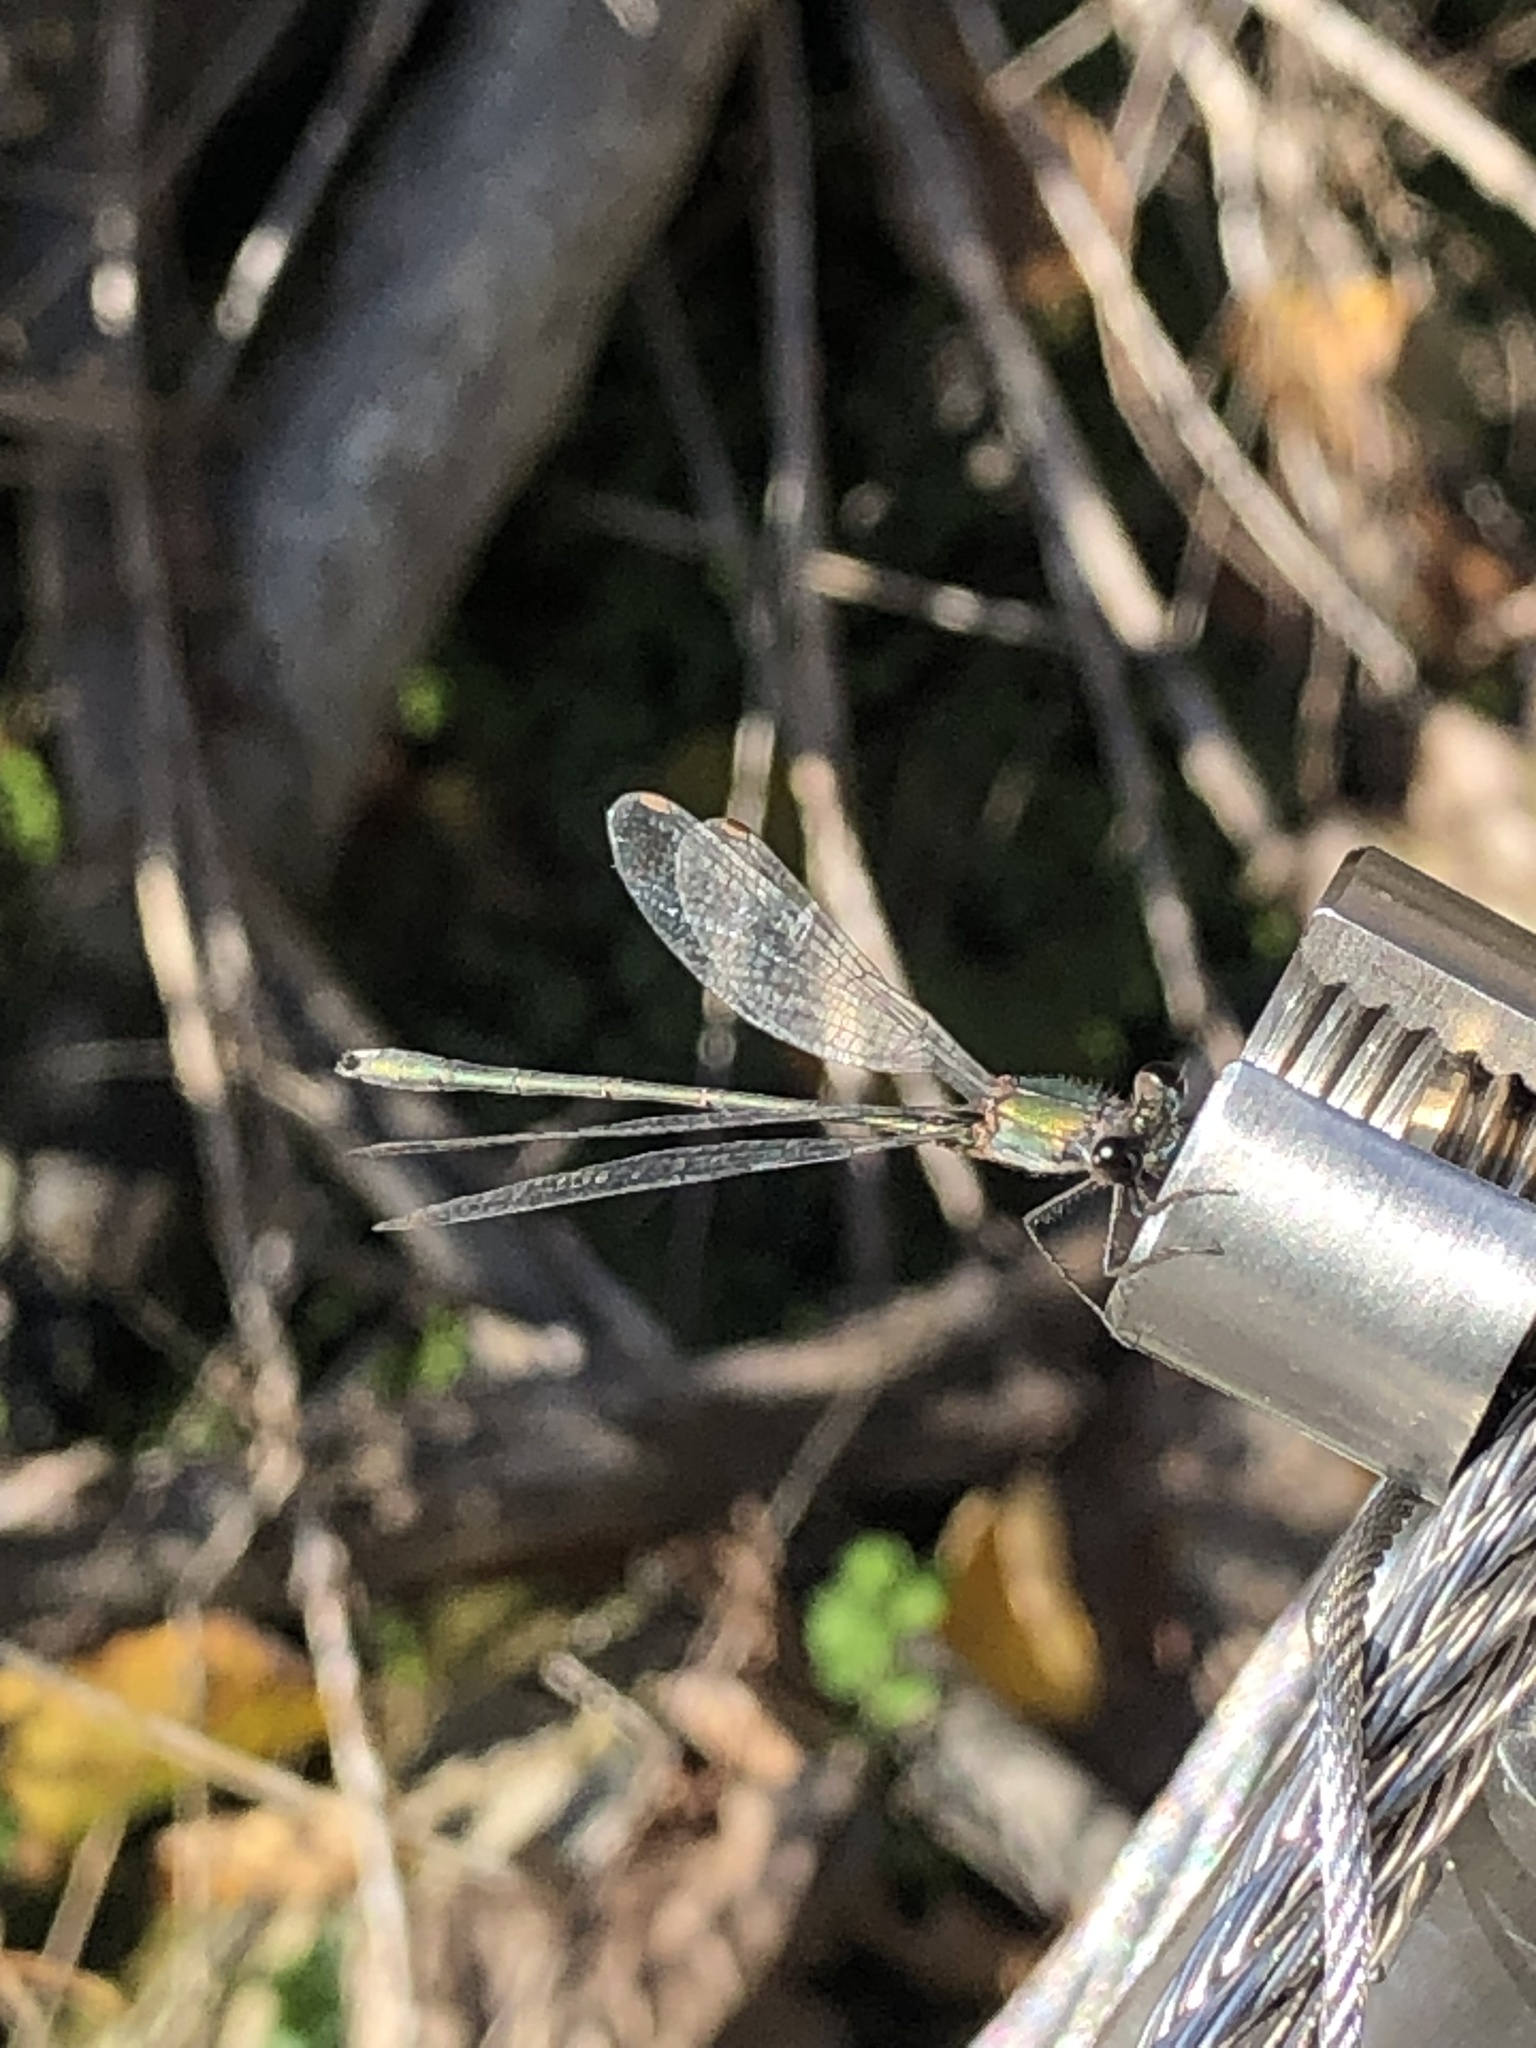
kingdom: Animalia
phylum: Arthropoda
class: Insecta
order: Odonata
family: Lestidae
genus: Chalcolestes
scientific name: Chalcolestes viridis
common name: Green emerald damselfly
